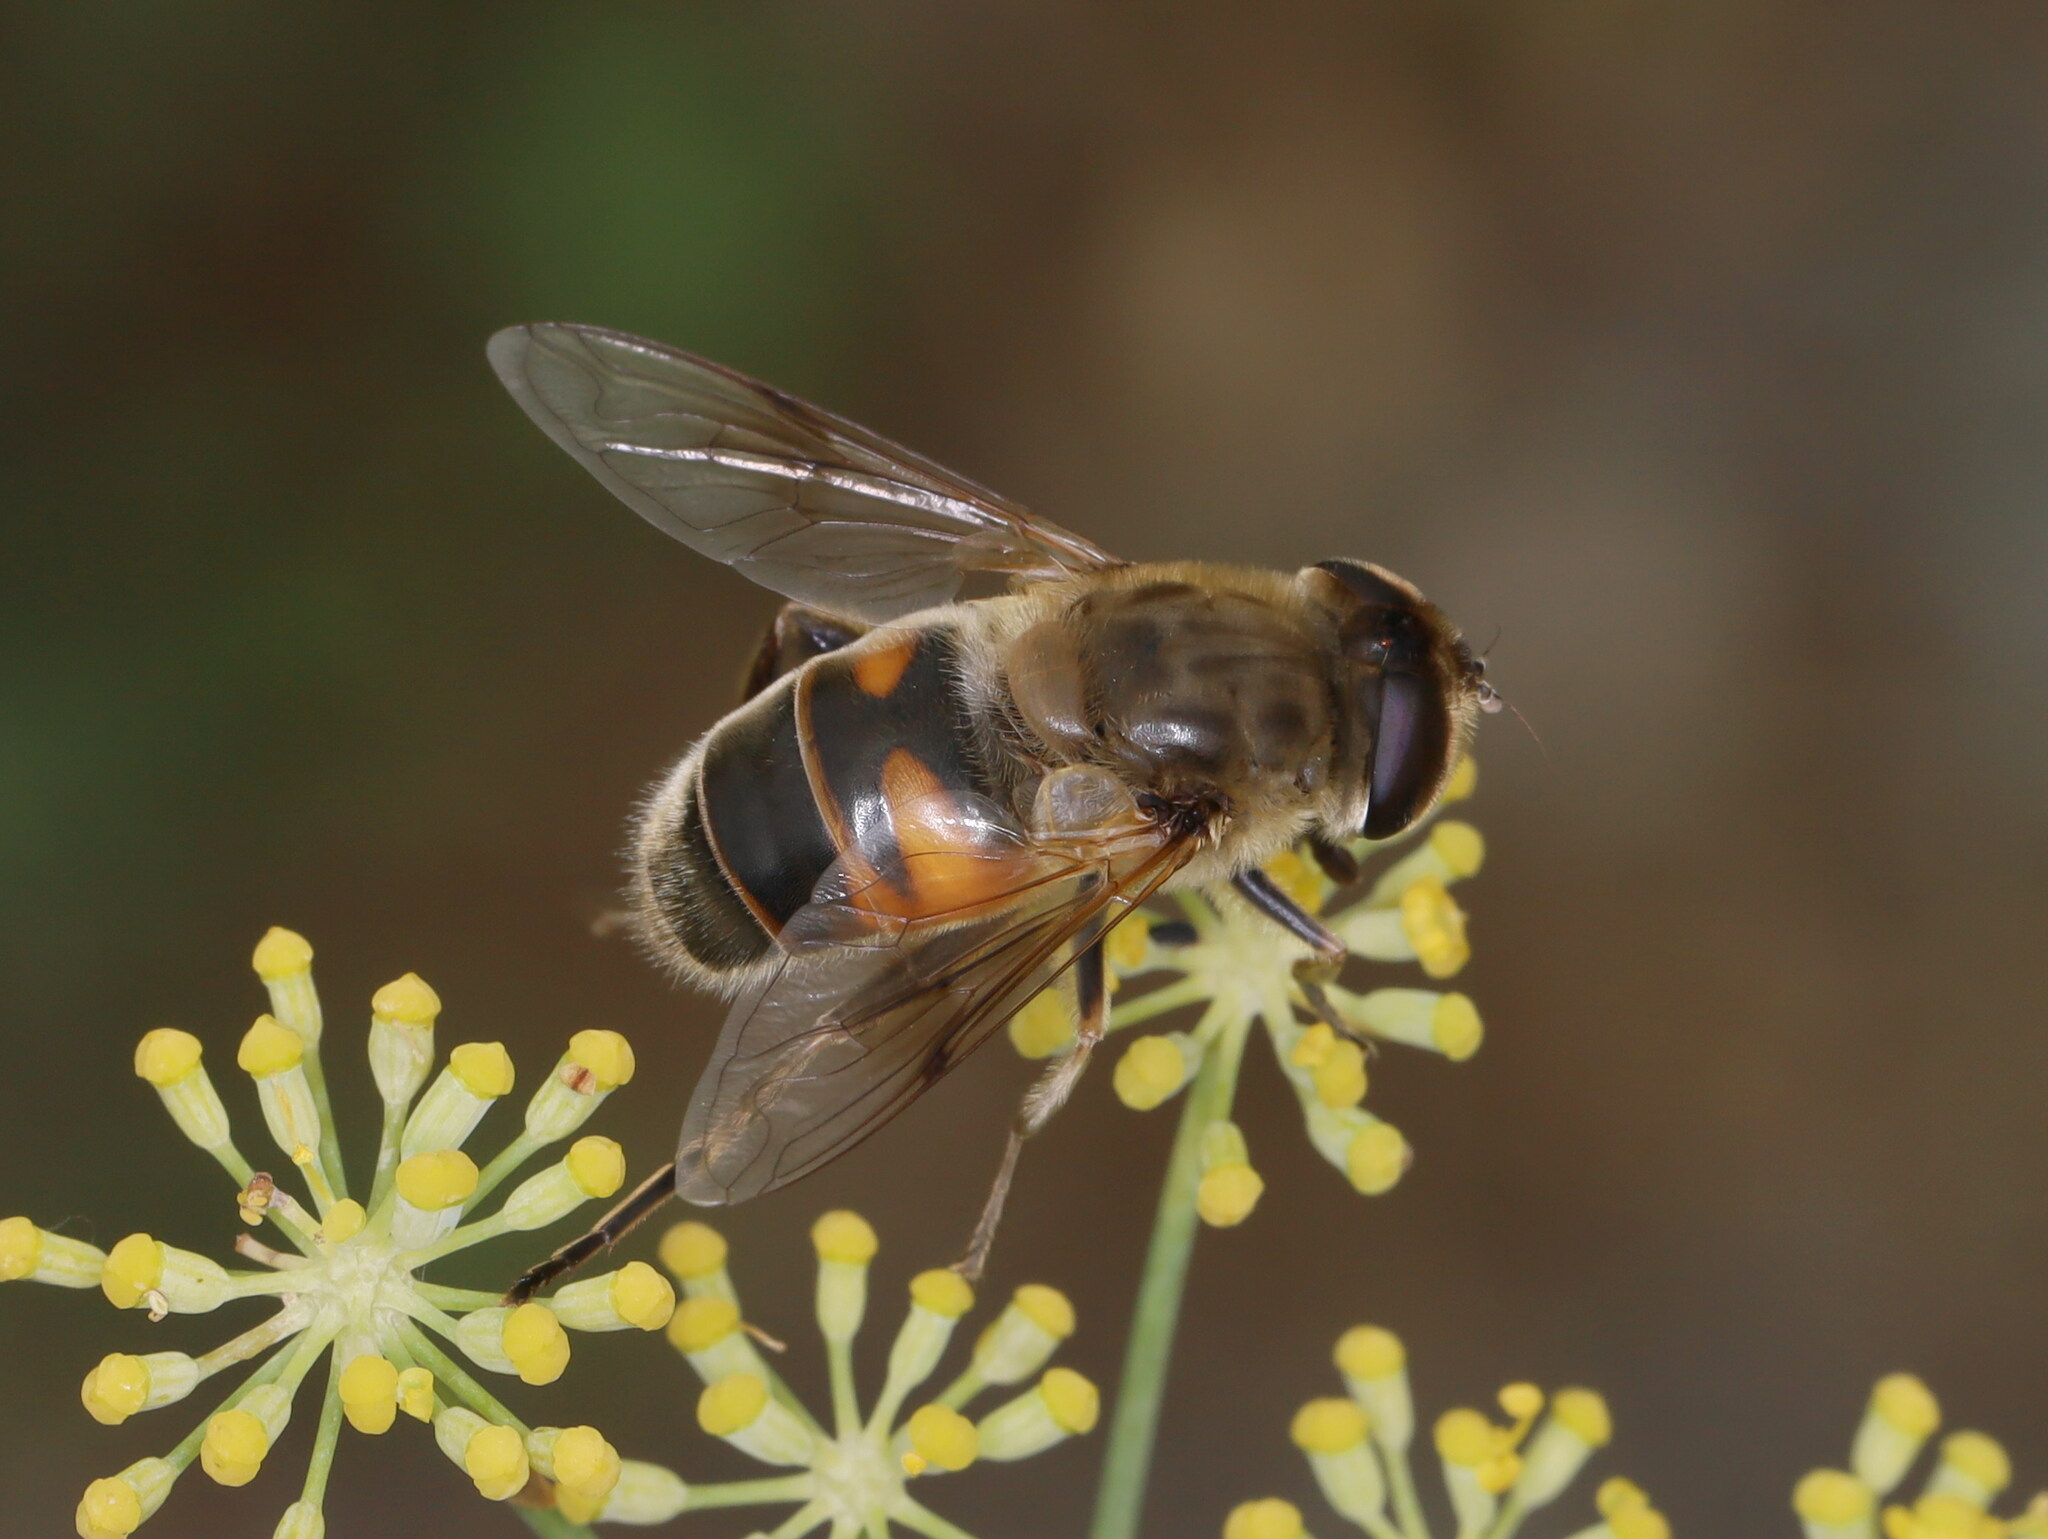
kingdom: Animalia
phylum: Arthropoda
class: Insecta
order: Diptera
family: Syrphidae
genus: Eristalis
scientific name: Eristalis tenax
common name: Drone fly
